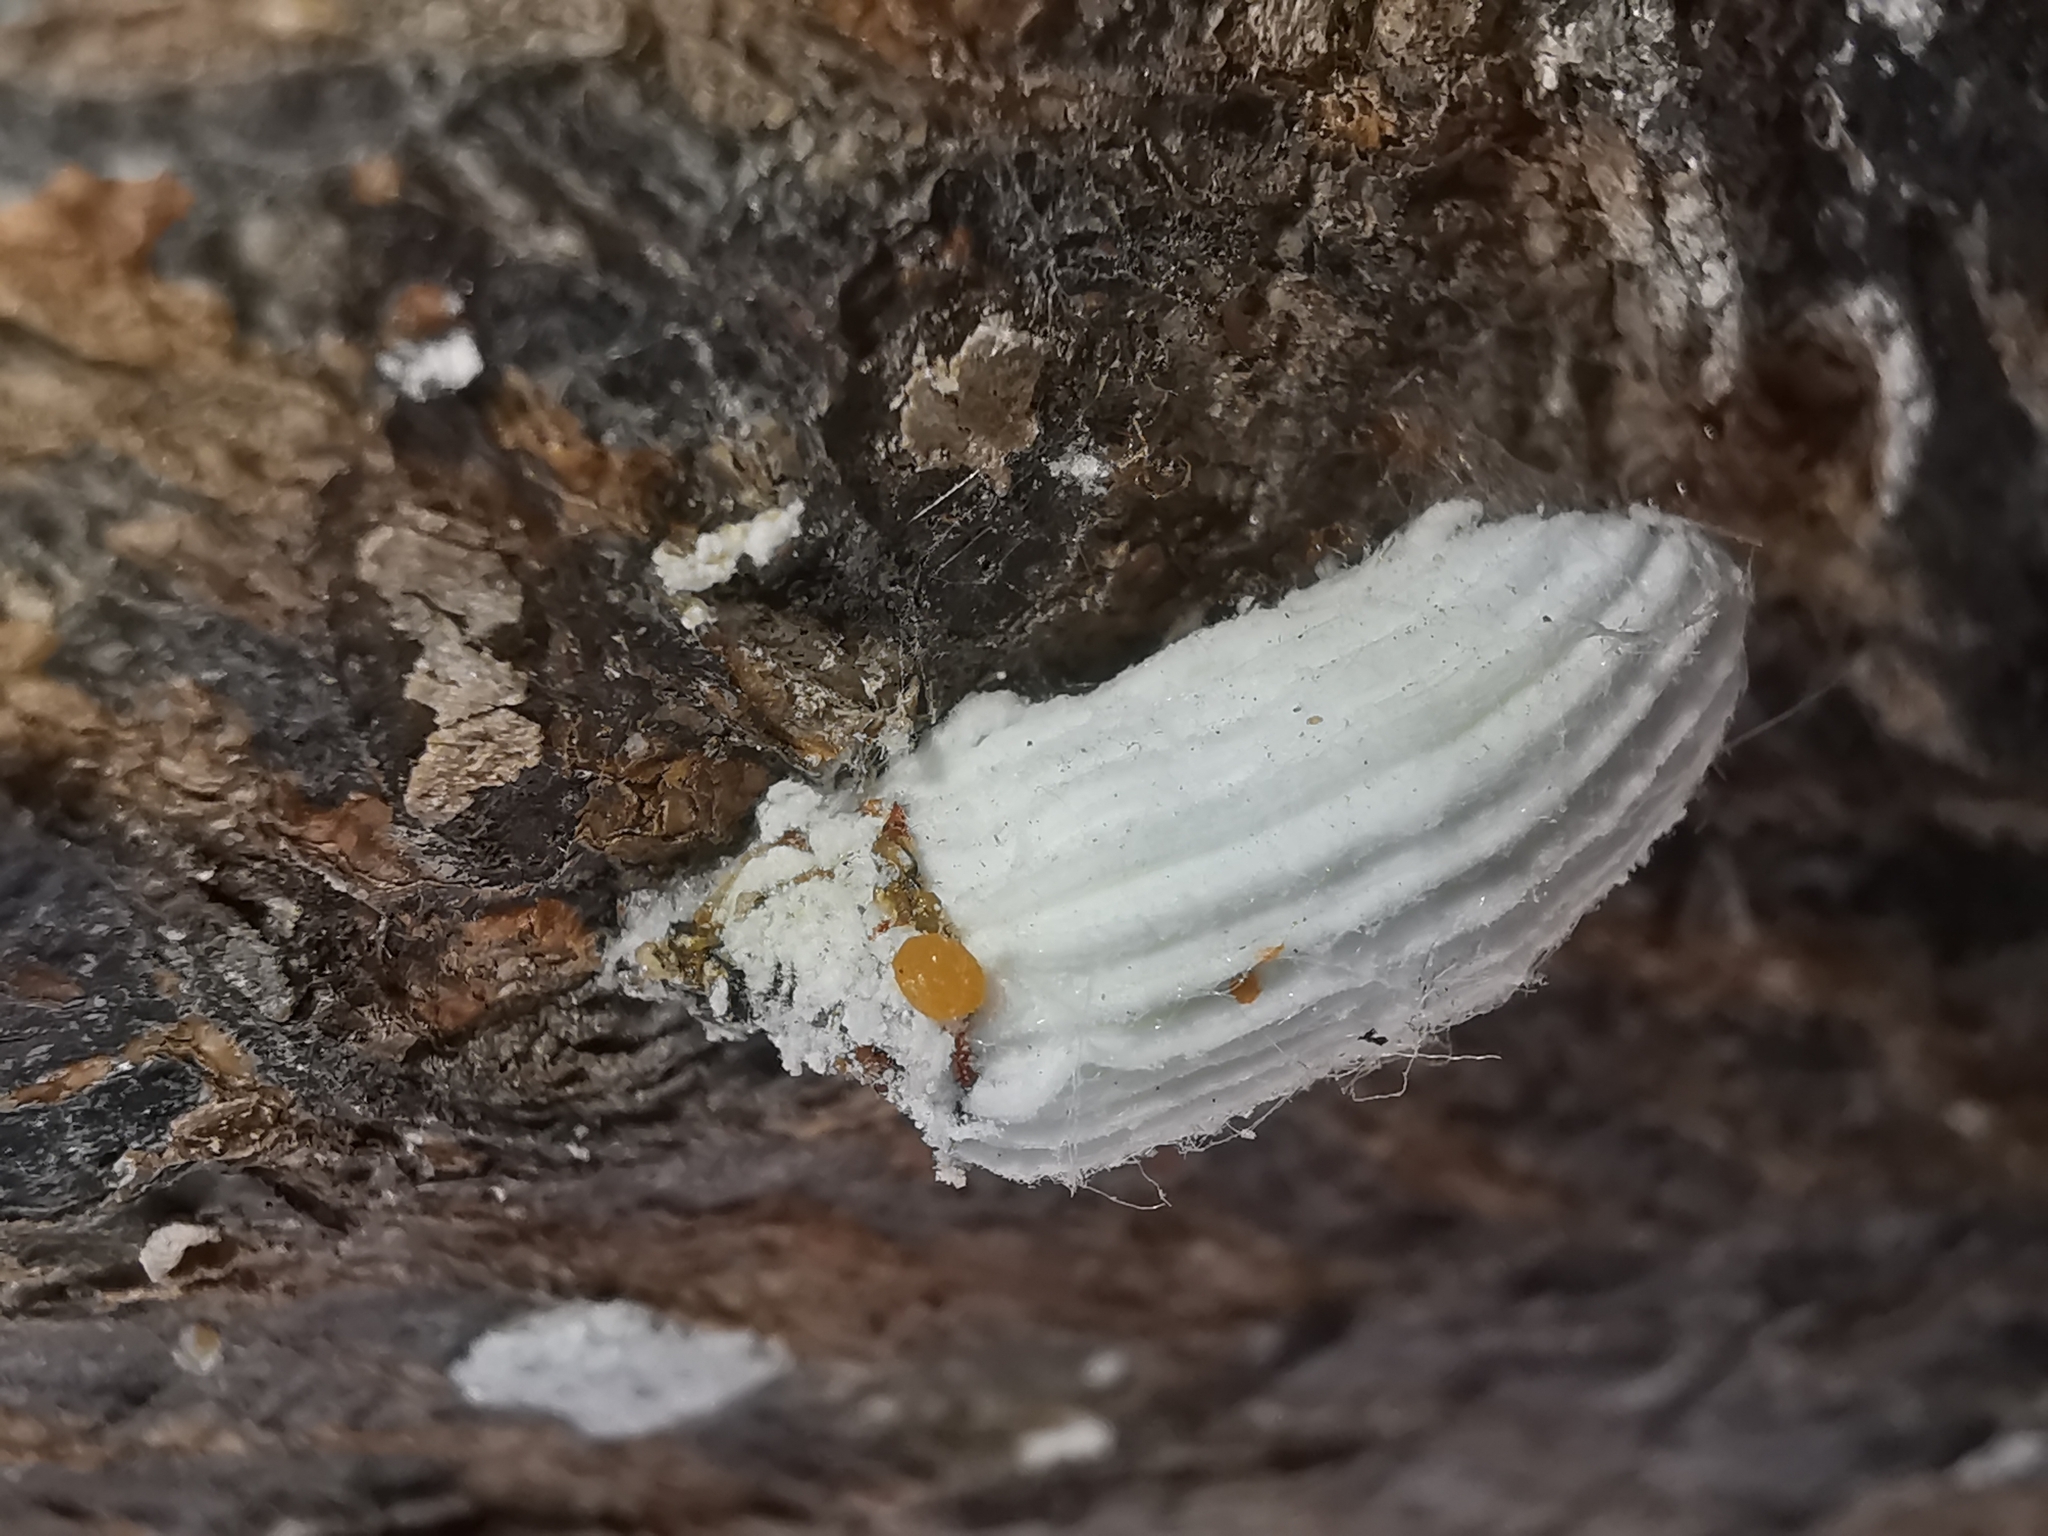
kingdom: Animalia
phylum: Arthropoda
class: Insecta
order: Hemiptera
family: Margarodidae
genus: Icerya
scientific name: Icerya purchasi
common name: Cottony cushion scale
